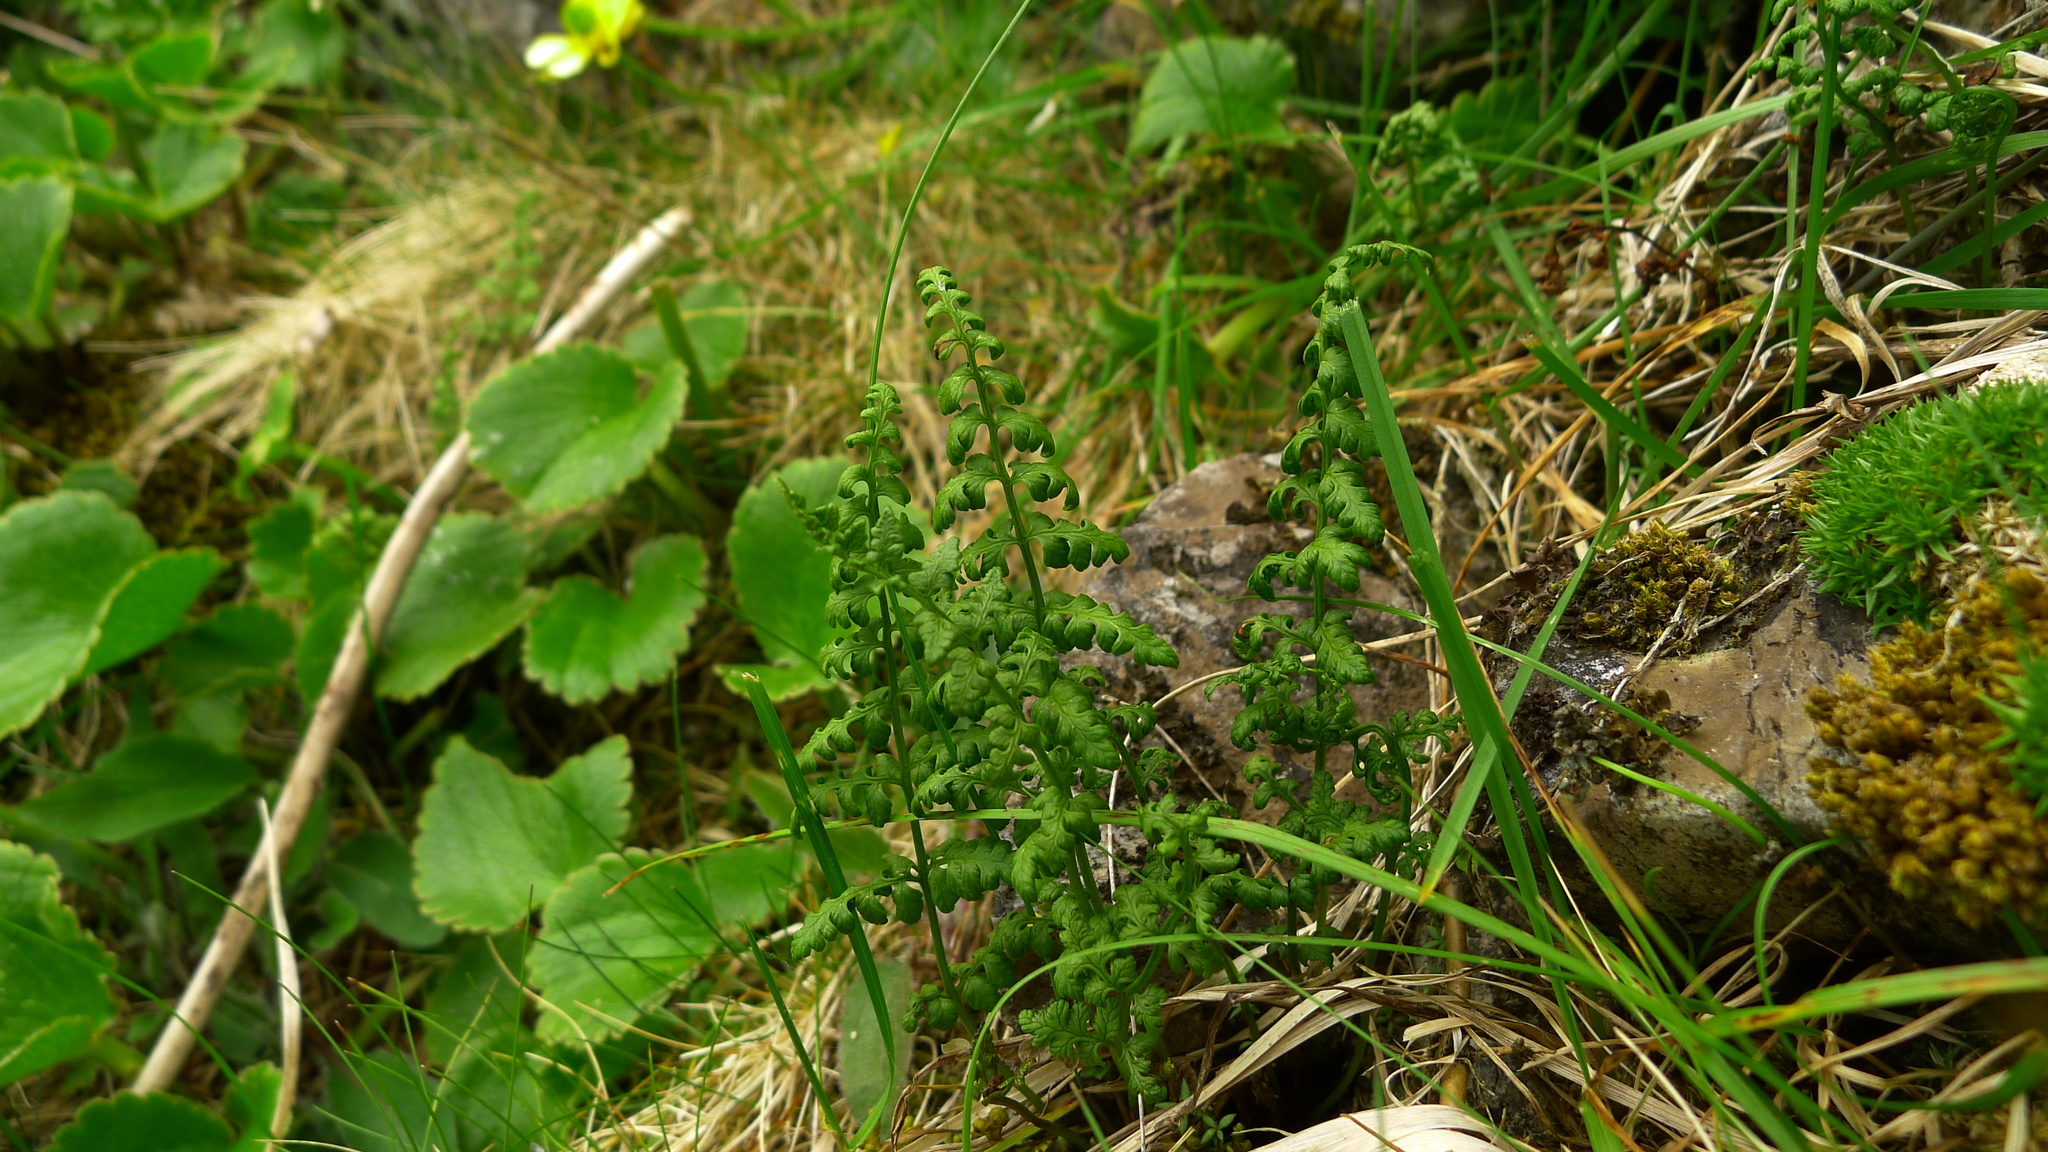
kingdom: Plantae
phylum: Tracheophyta
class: Polypodiopsida
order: Polypodiales
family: Cystopteridaceae
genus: Cystopteris
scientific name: Cystopteris tasmanica
